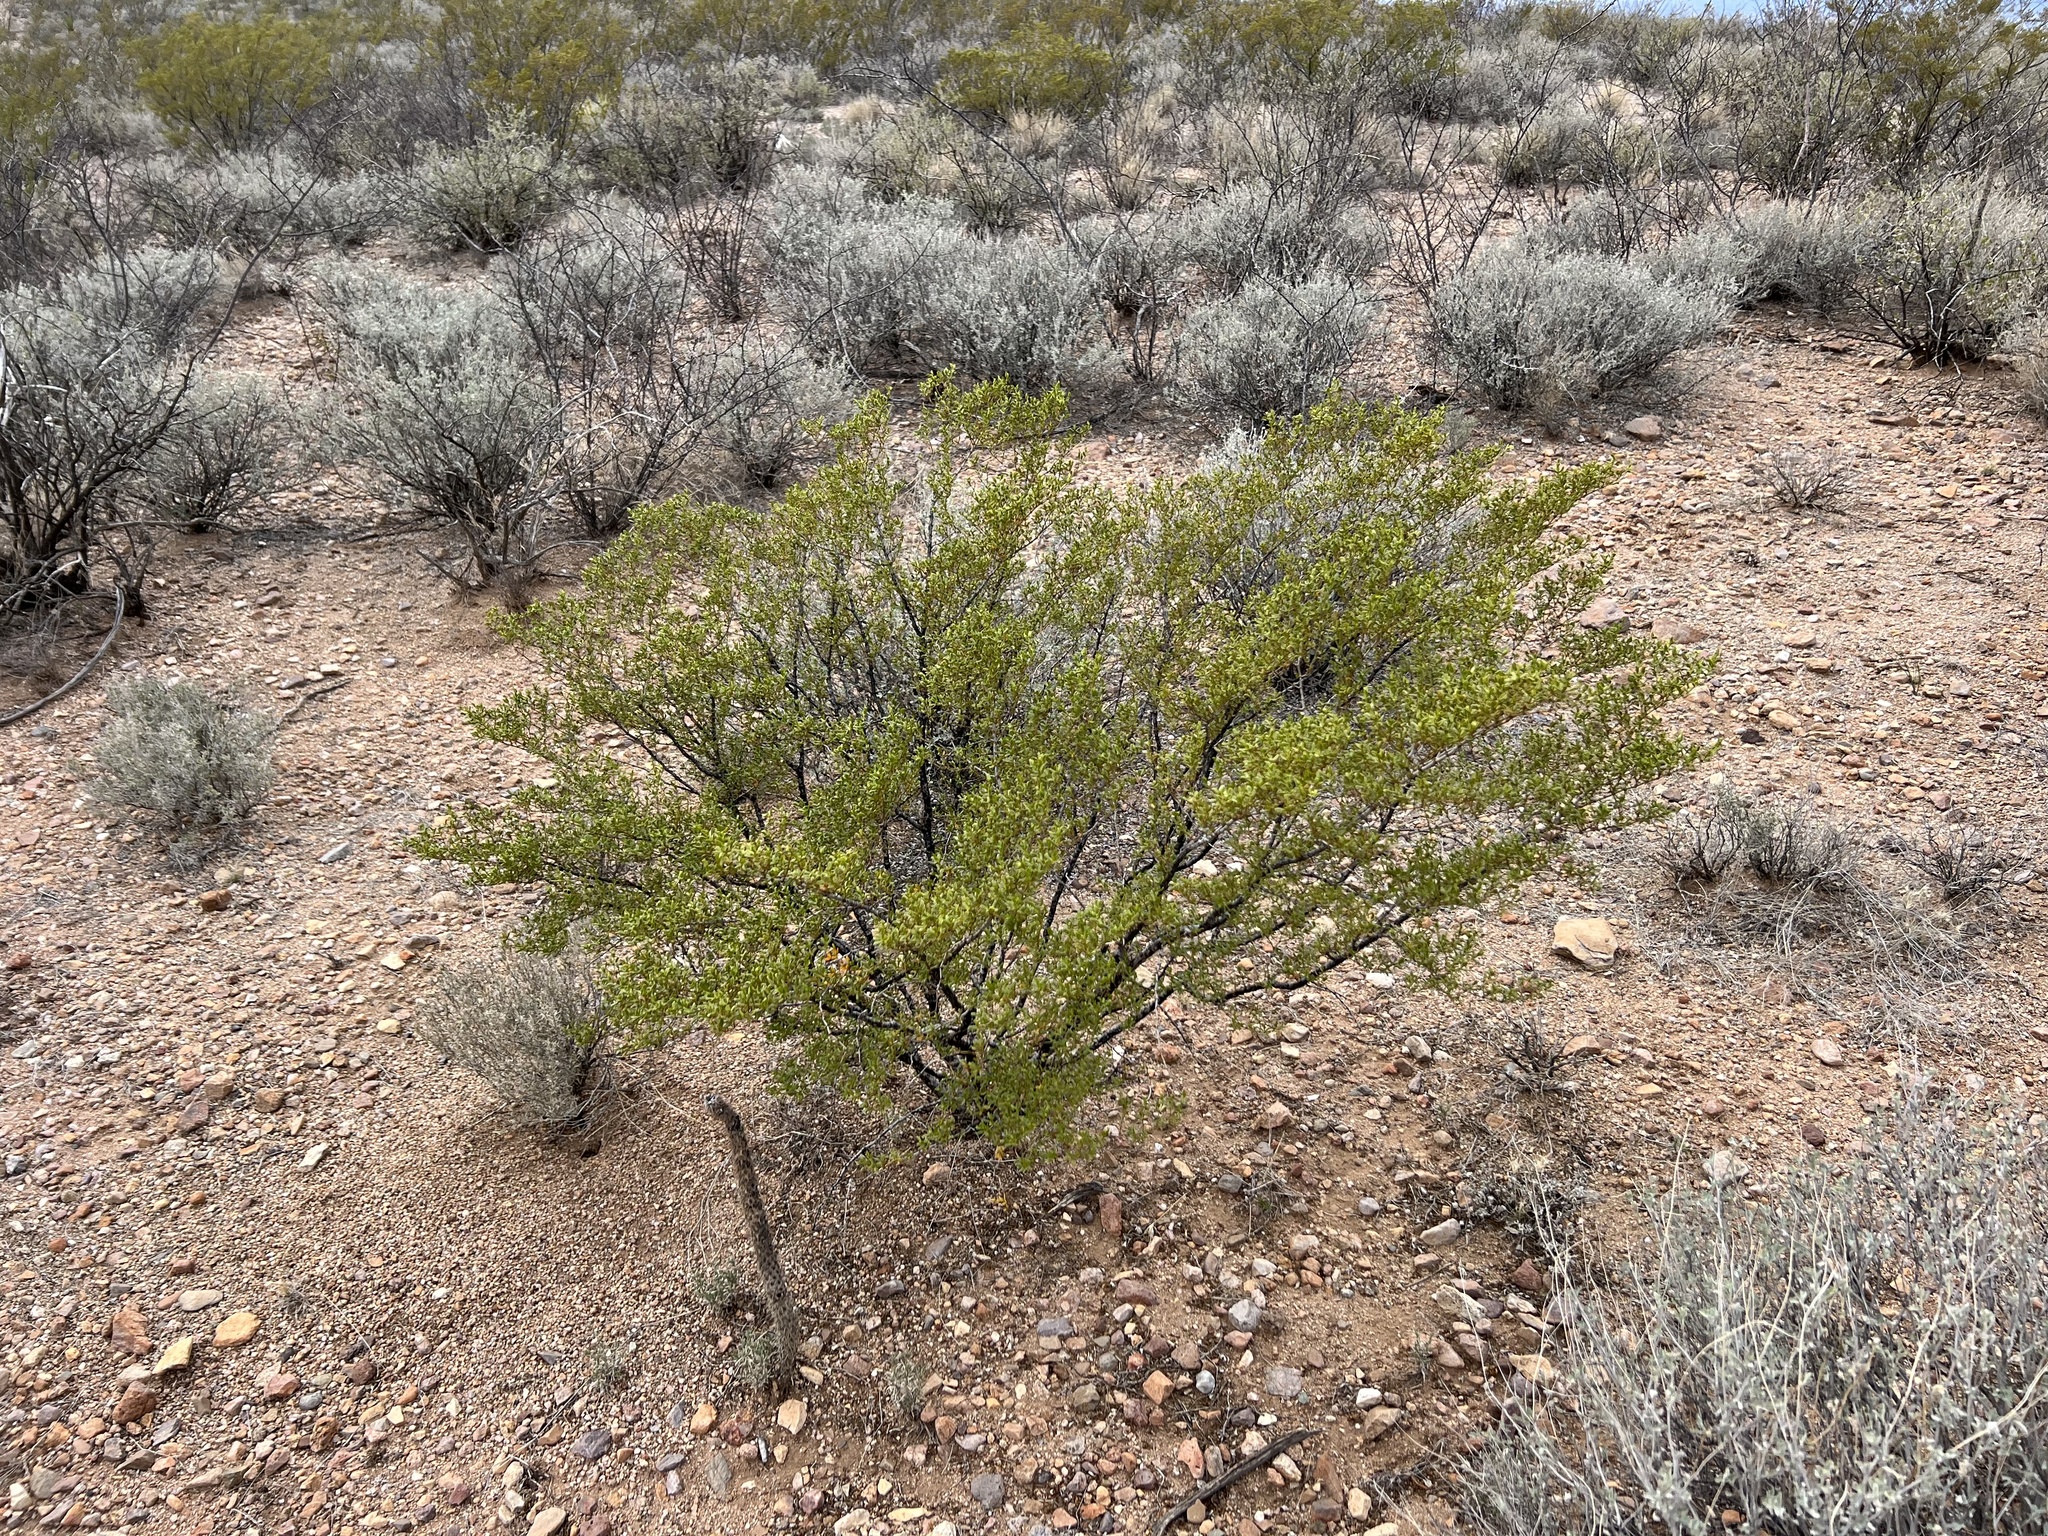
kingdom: Plantae
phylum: Tracheophyta
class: Magnoliopsida
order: Zygophyllales
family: Zygophyllaceae
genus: Larrea
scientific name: Larrea tridentata
